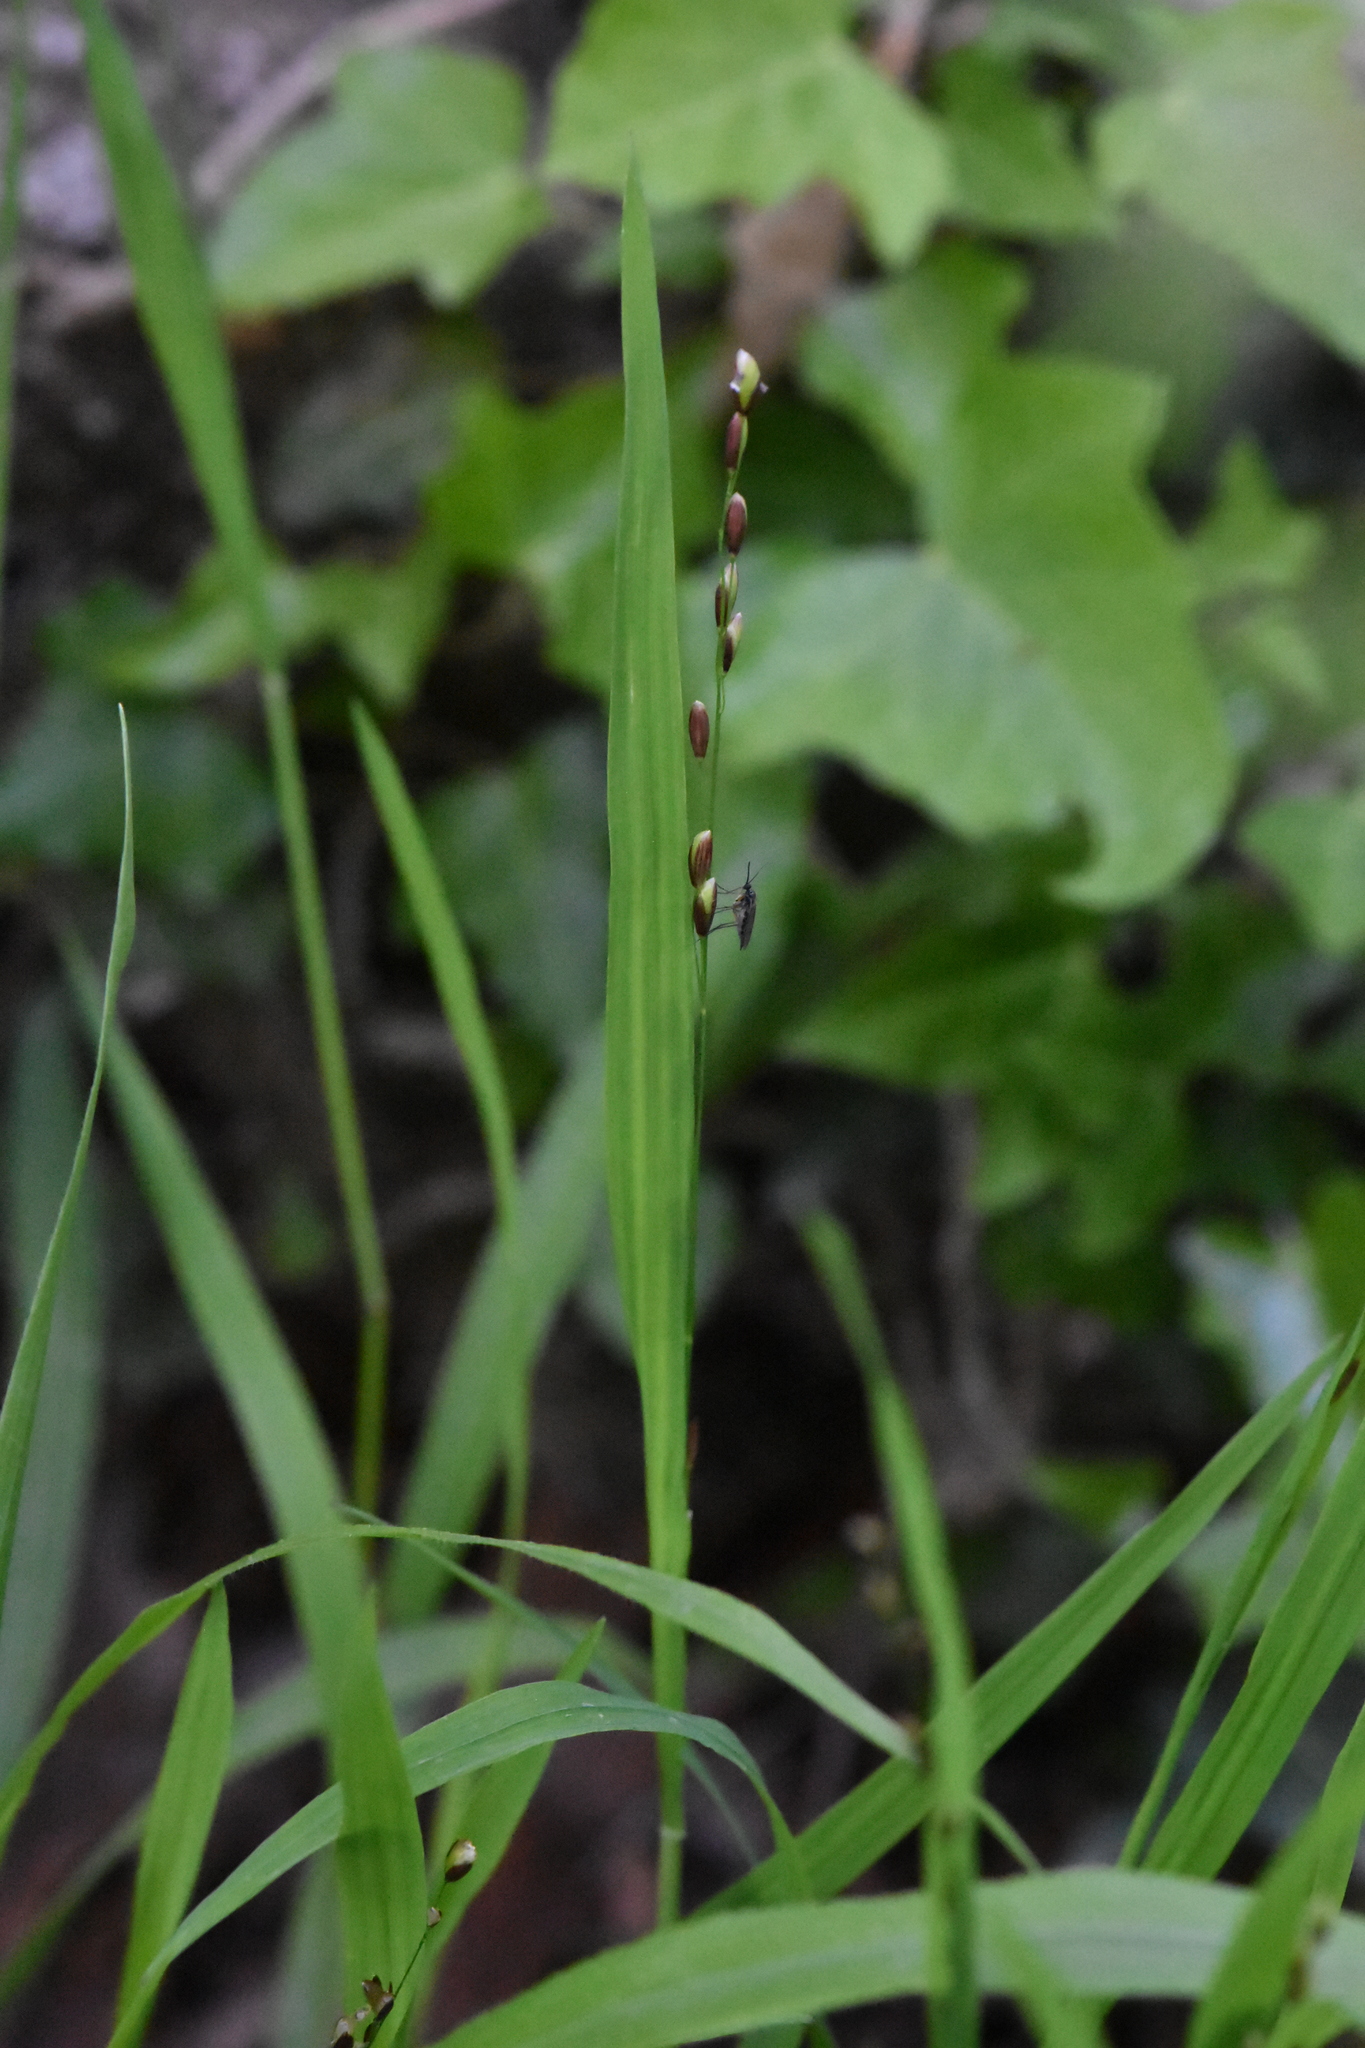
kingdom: Plantae
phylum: Tracheophyta
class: Liliopsida
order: Poales
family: Poaceae
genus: Melica
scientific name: Melica uniflora
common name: Wood melick
